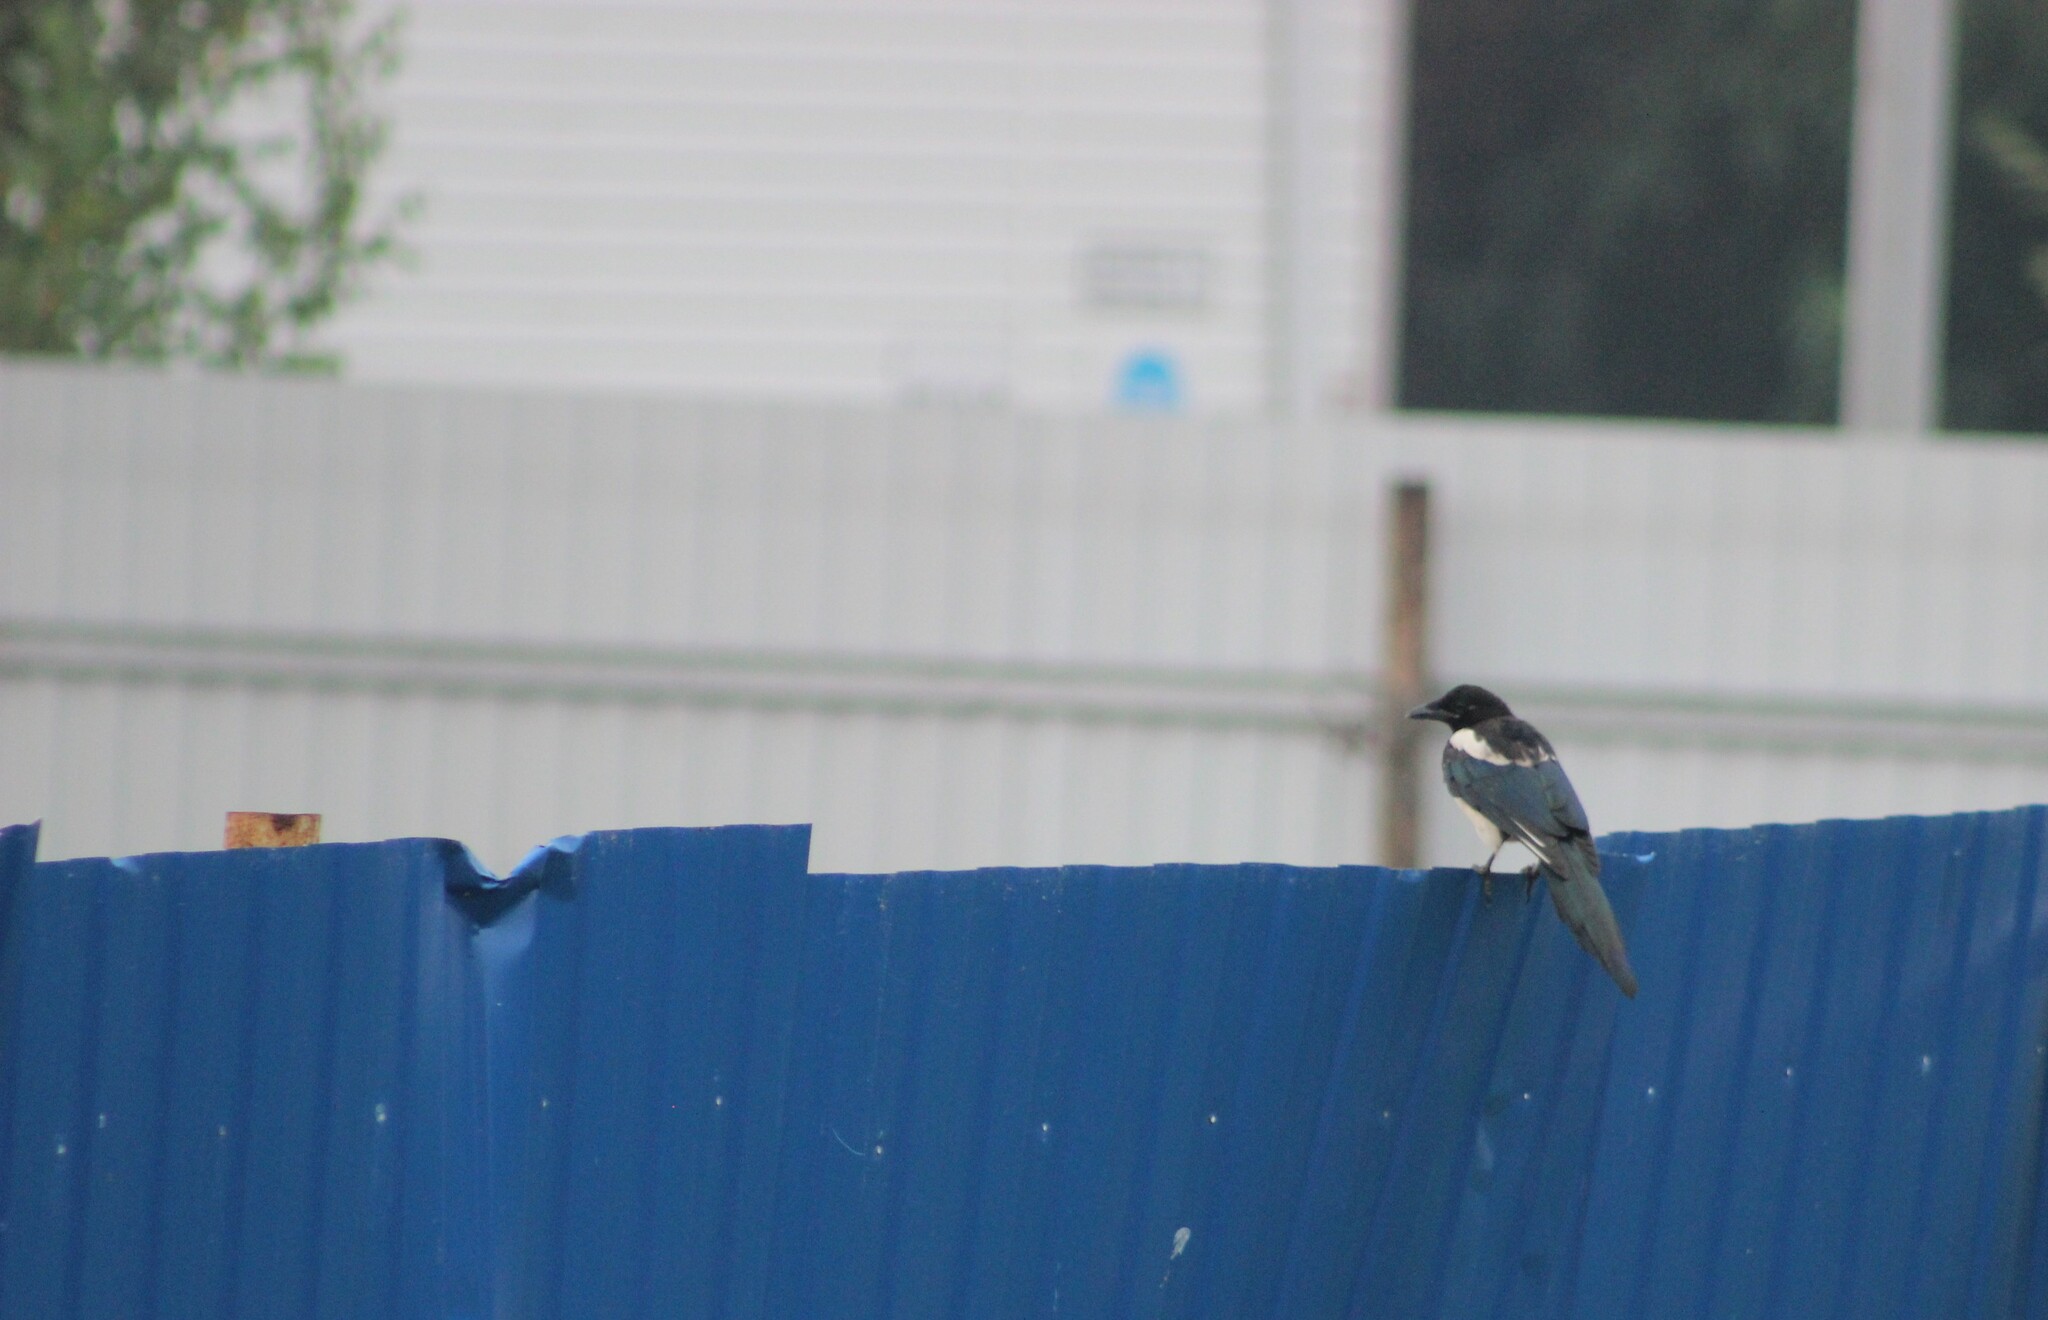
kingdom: Animalia
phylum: Chordata
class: Aves
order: Passeriformes
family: Corvidae
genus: Pica
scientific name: Pica pica
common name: Eurasian magpie
